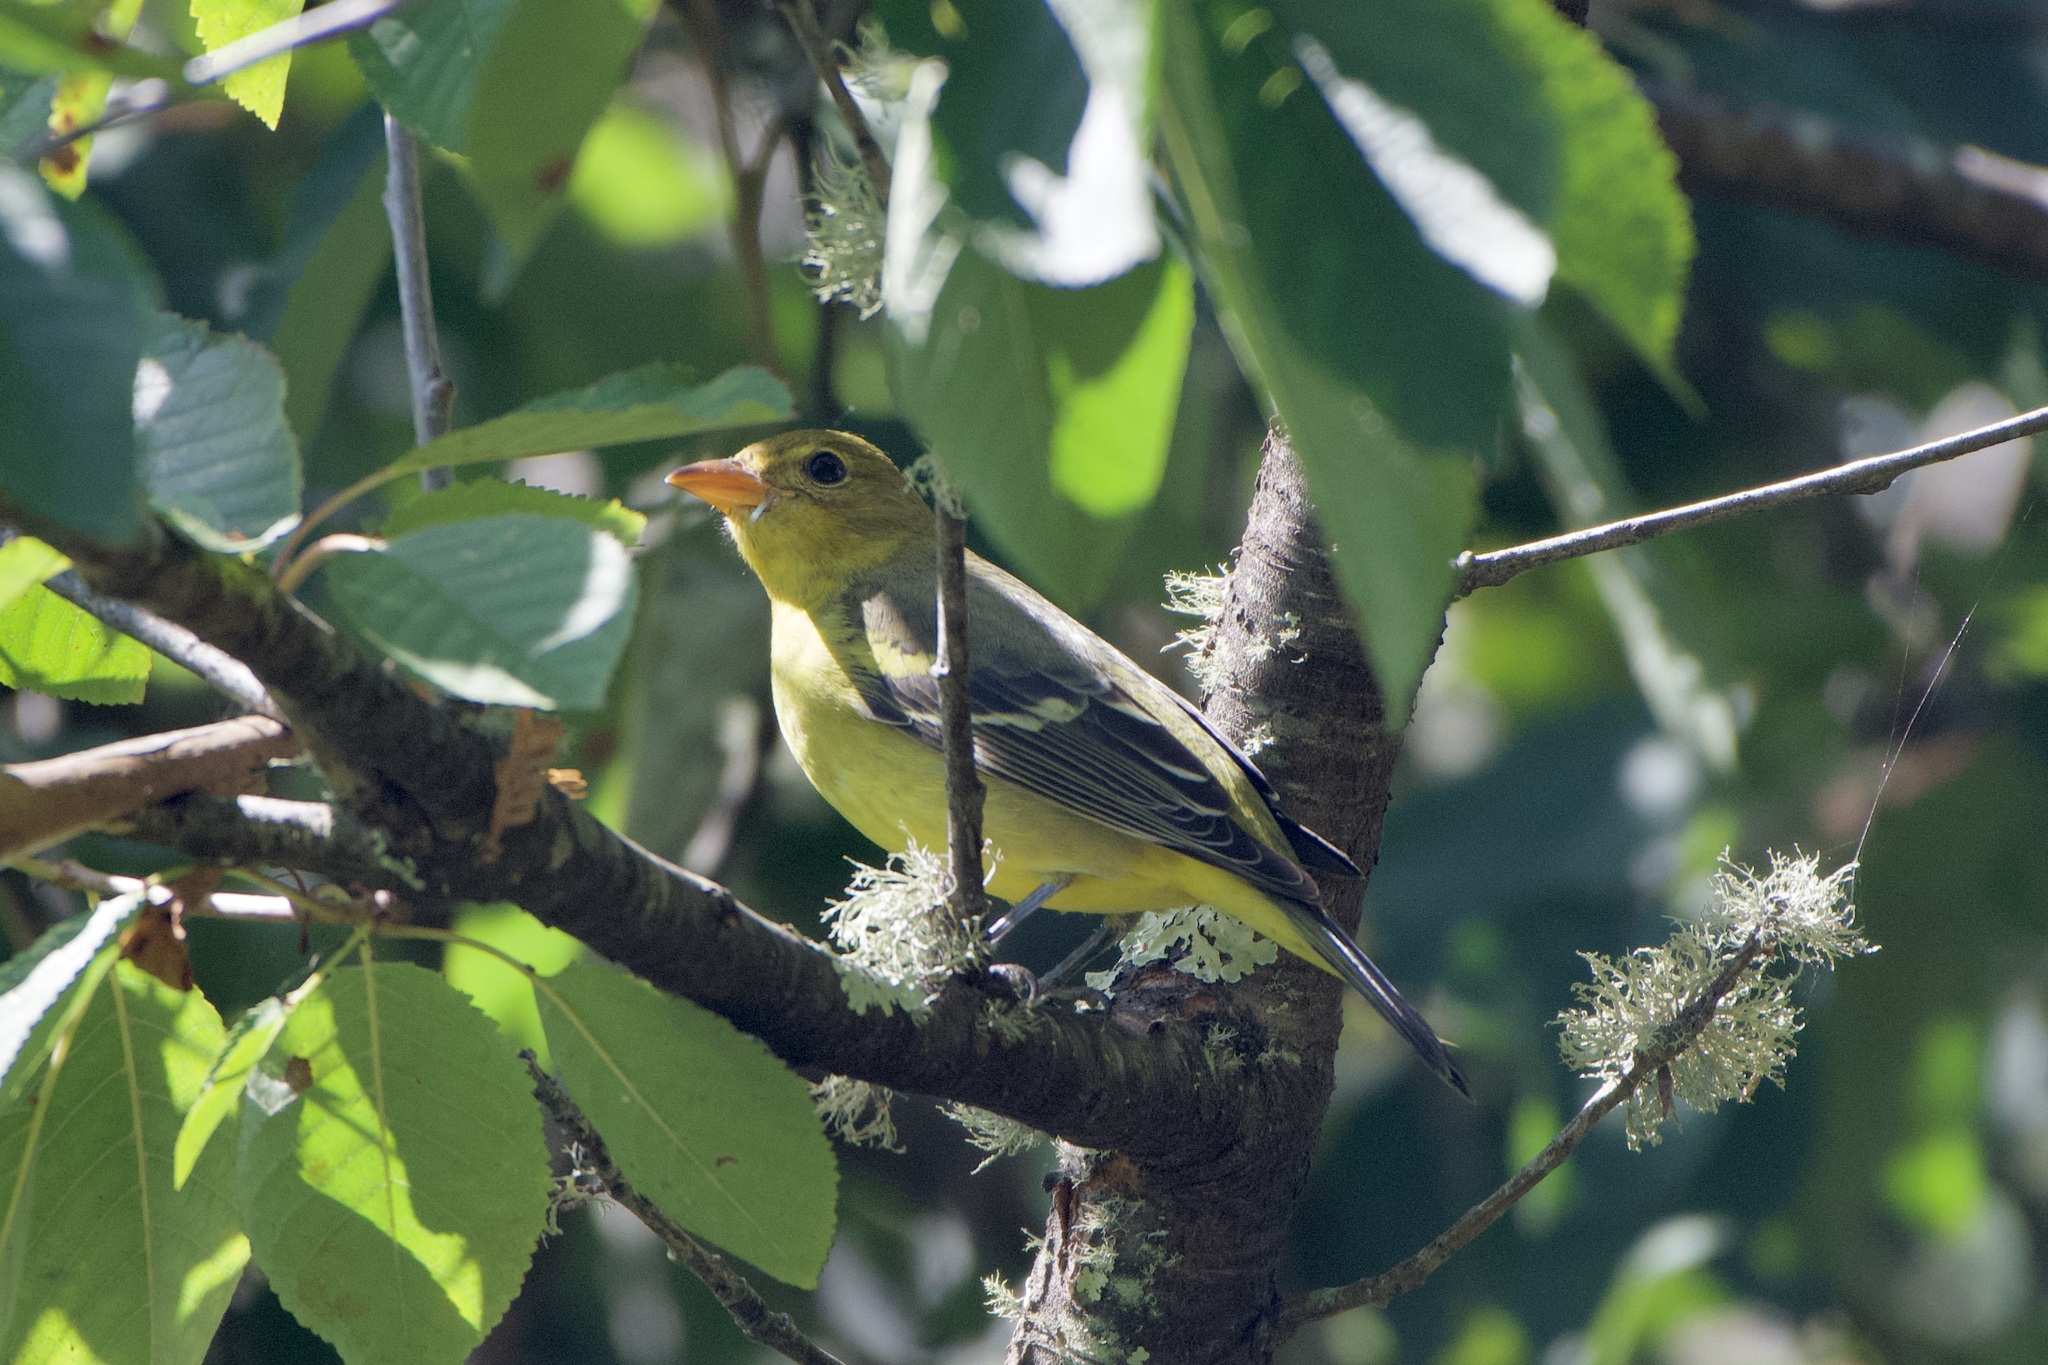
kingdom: Animalia
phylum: Chordata
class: Aves
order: Passeriformes
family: Cardinalidae
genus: Piranga
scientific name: Piranga ludoviciana
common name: Western tanager
